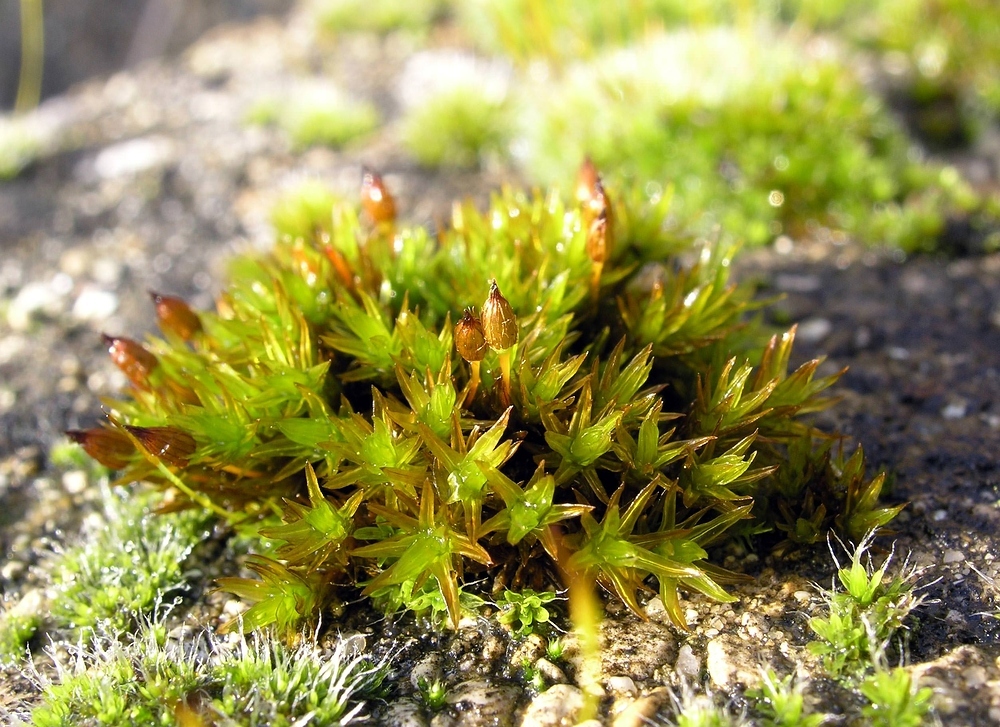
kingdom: Plantae
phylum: Bryophyta
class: Bryopsida
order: Orthotrichales
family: Orthotrichaceae
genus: Orthotrichum
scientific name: Orthotrichum anomalum
